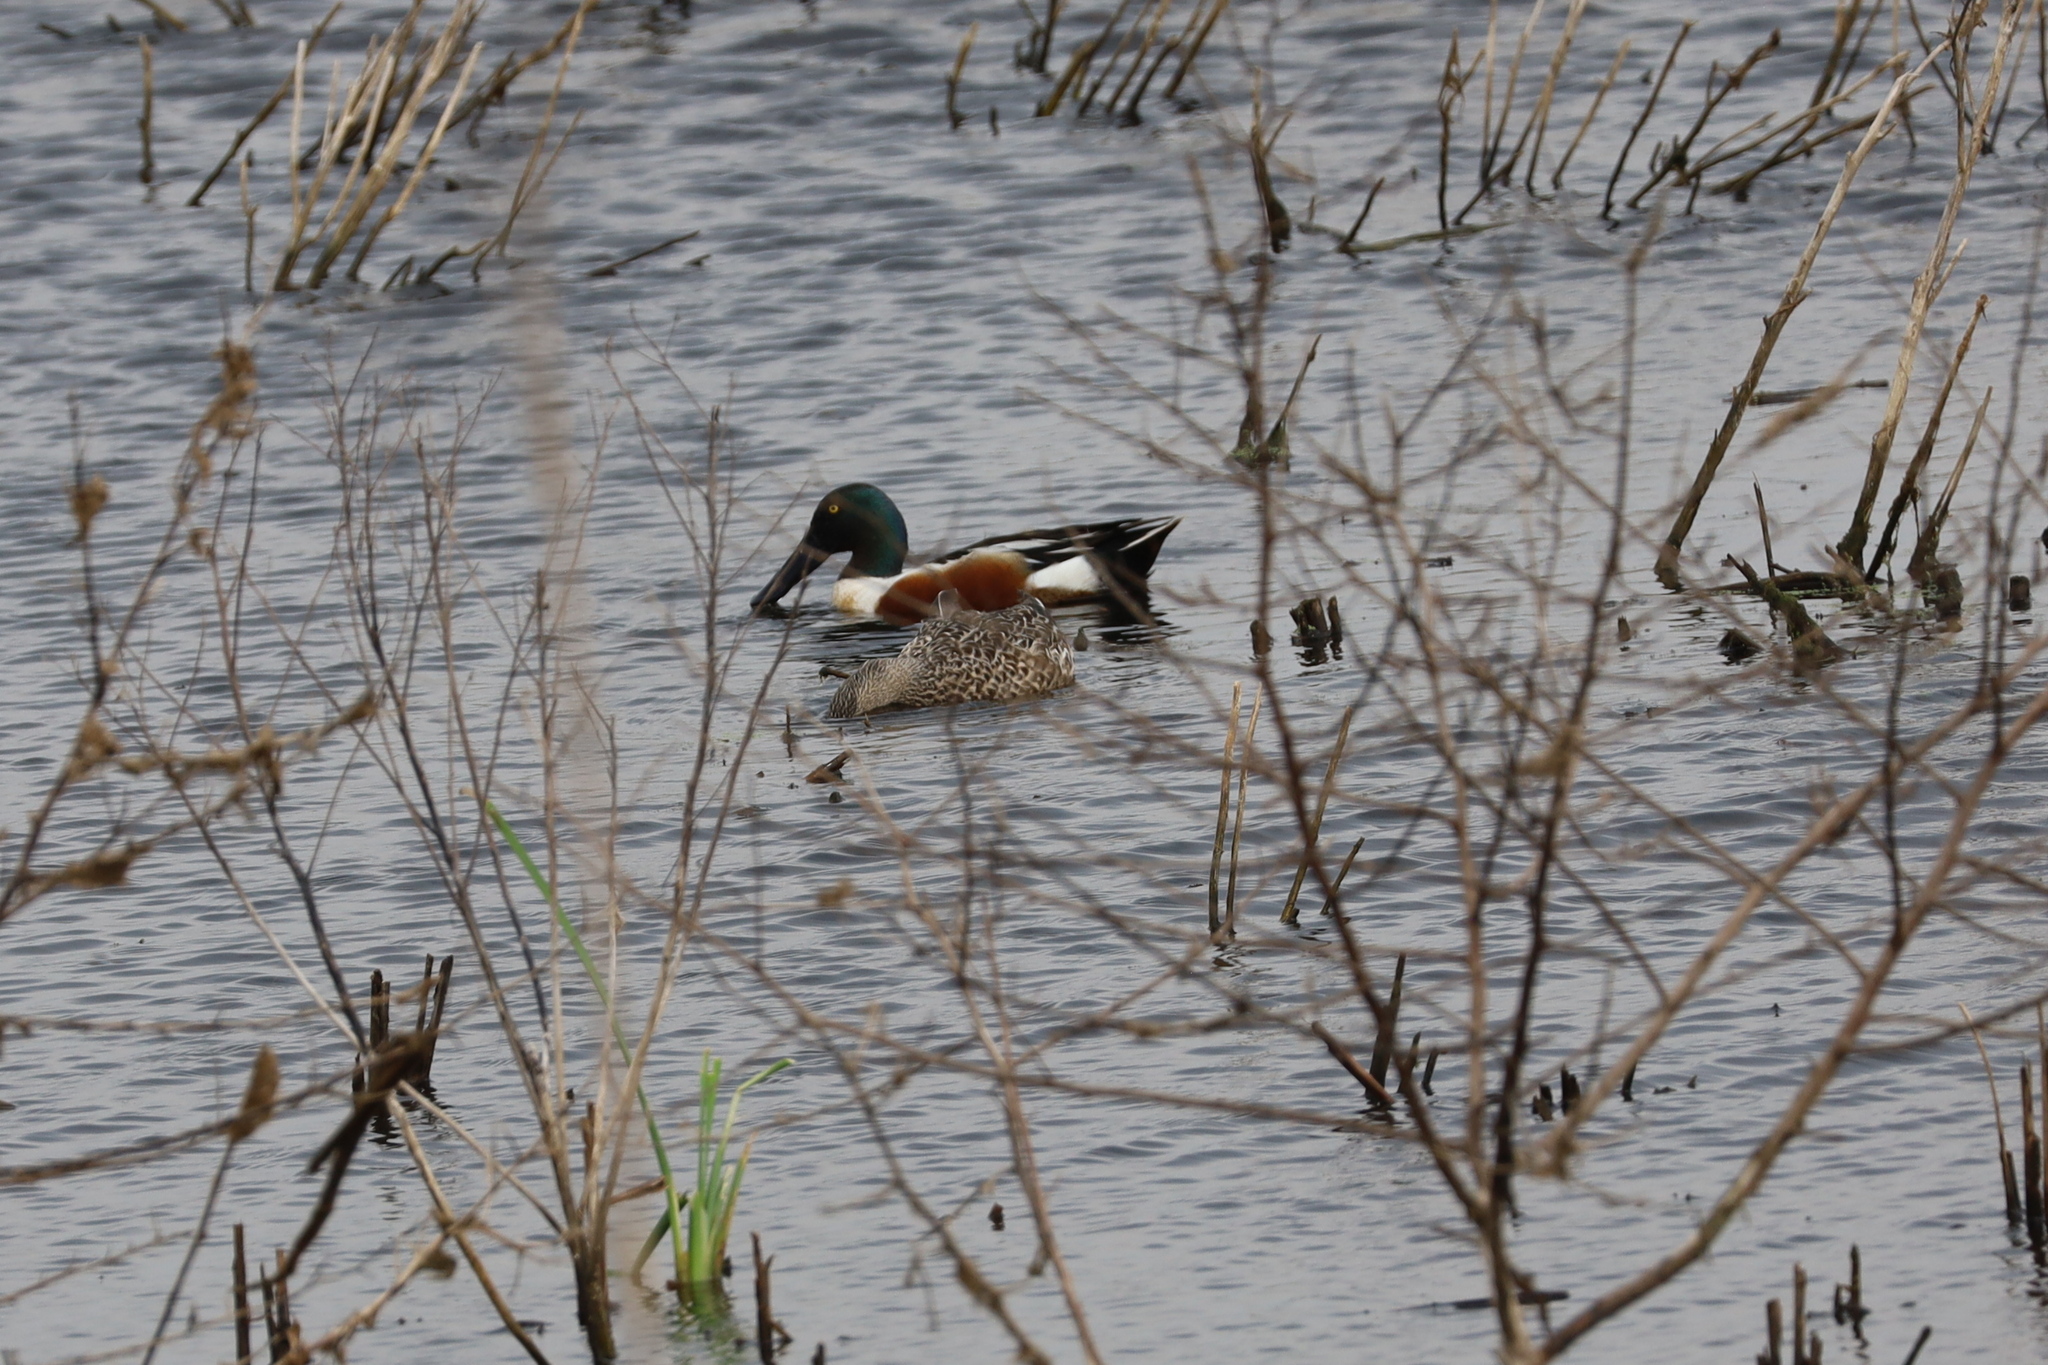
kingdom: Animalia
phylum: Chordata
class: Aves
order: Anseriformes
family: Anatidae
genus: Spatula
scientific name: Spatula clypeata
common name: Northern shoveler
